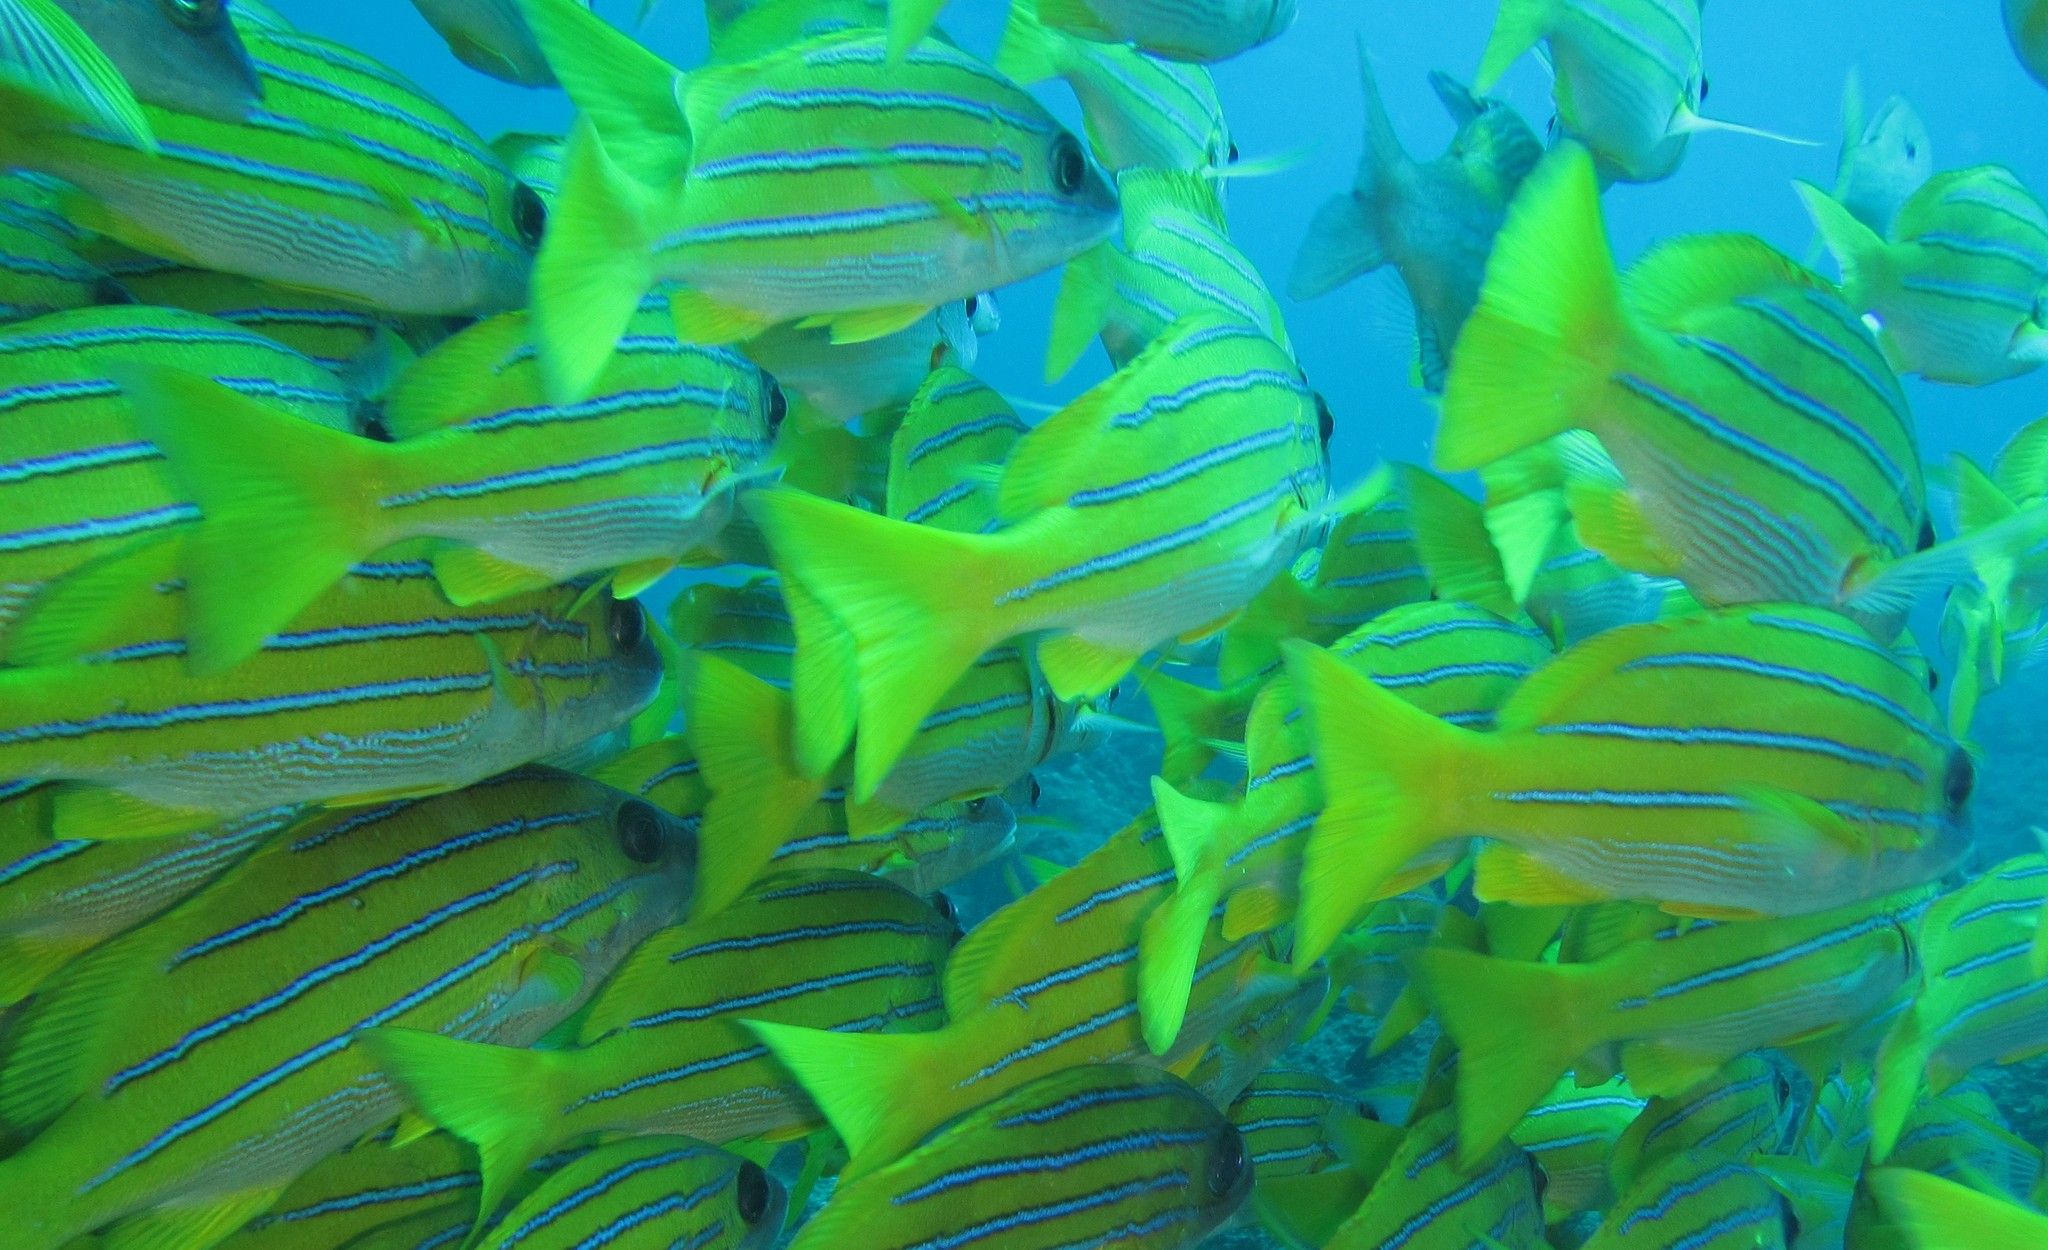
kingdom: Animalia
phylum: Chordata
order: Perciformes
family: Lutjanidae
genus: Lutjanus
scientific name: Lutjanus kasmira
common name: Common bluestripe snapper
